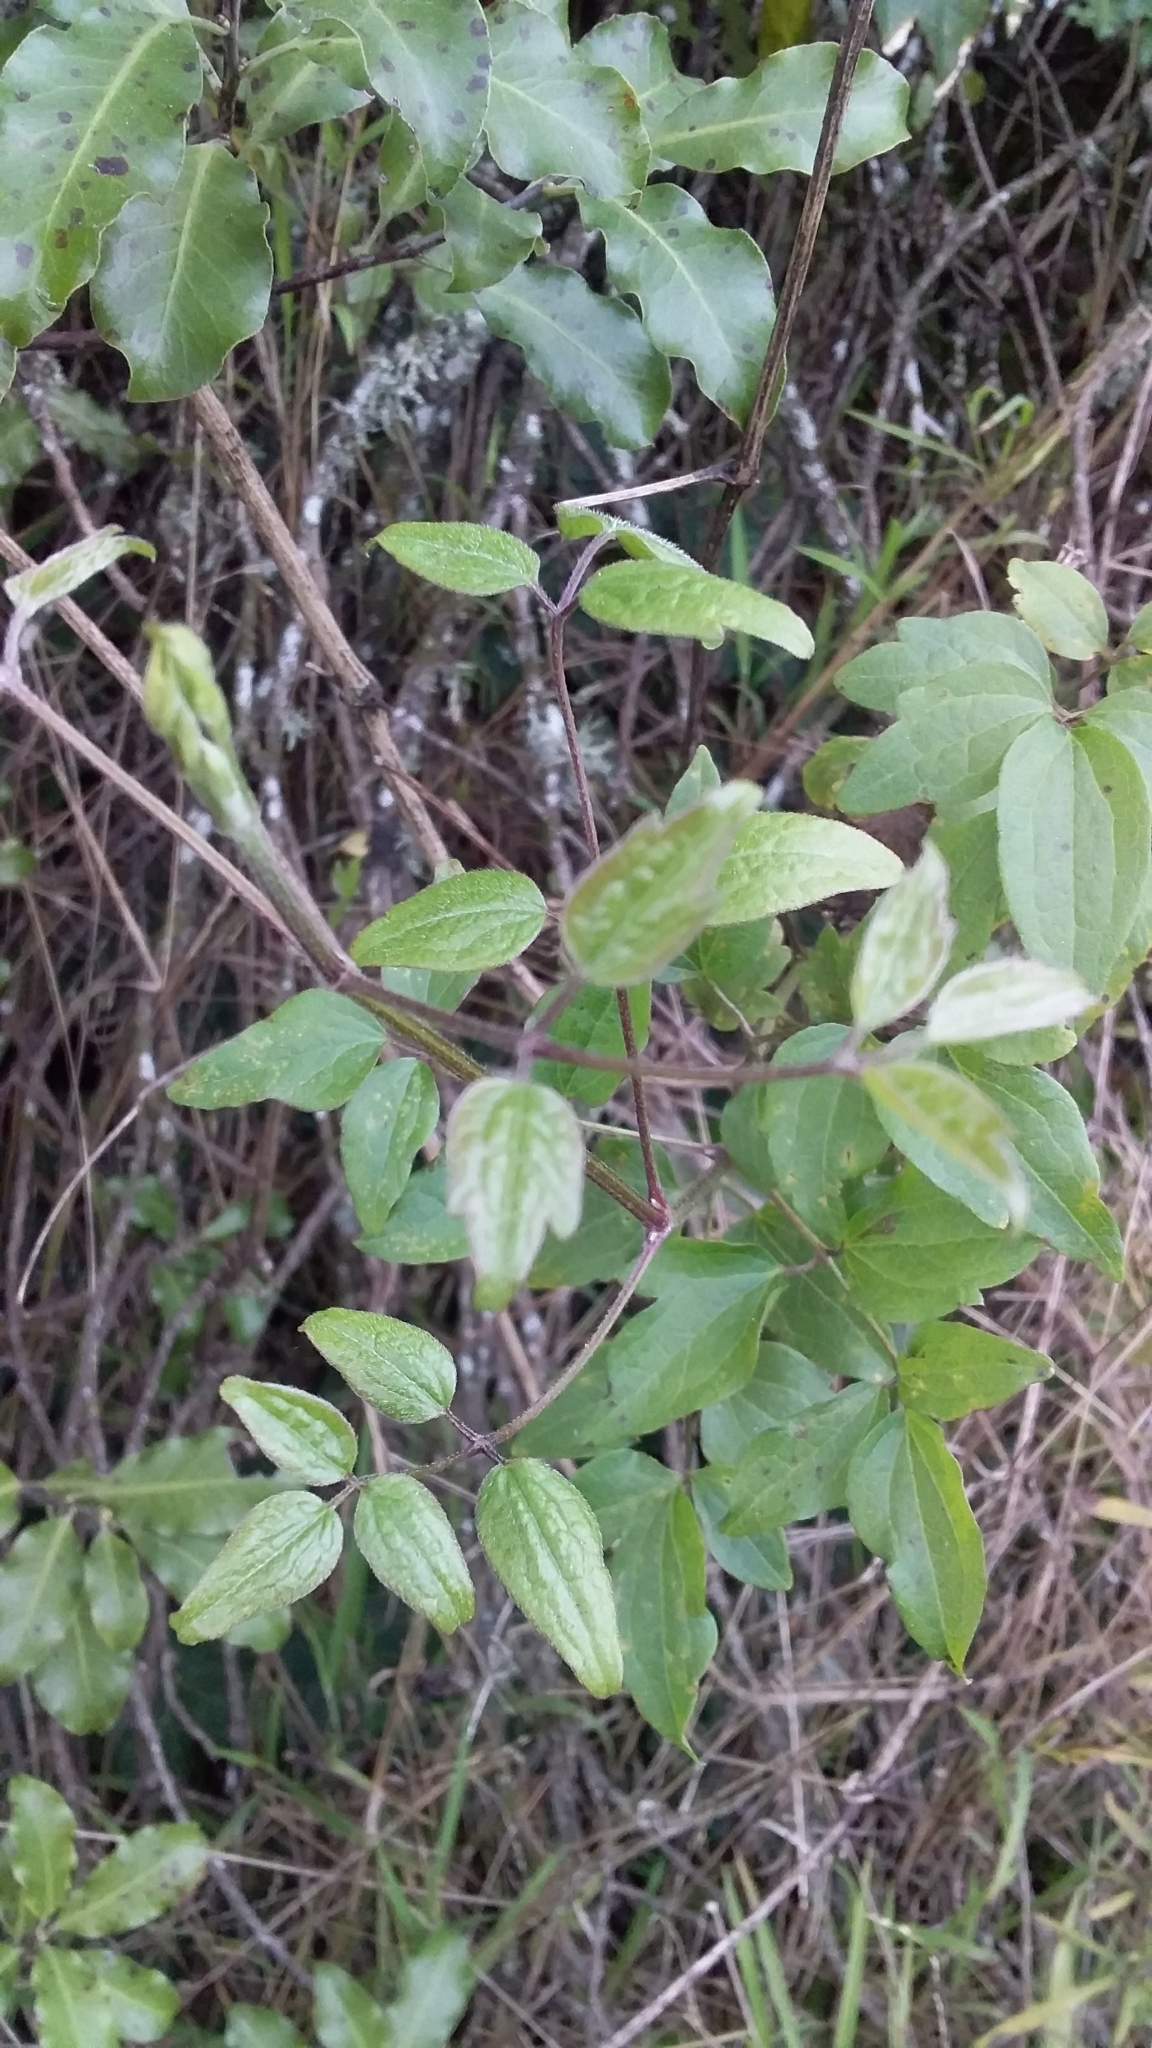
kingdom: Plantae
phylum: Tracheophyta
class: Magnoliopsida
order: Ranunculales
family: Ranunculaceae
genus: Clematis
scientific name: Clematis vitalba
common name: Evergreen clematis
